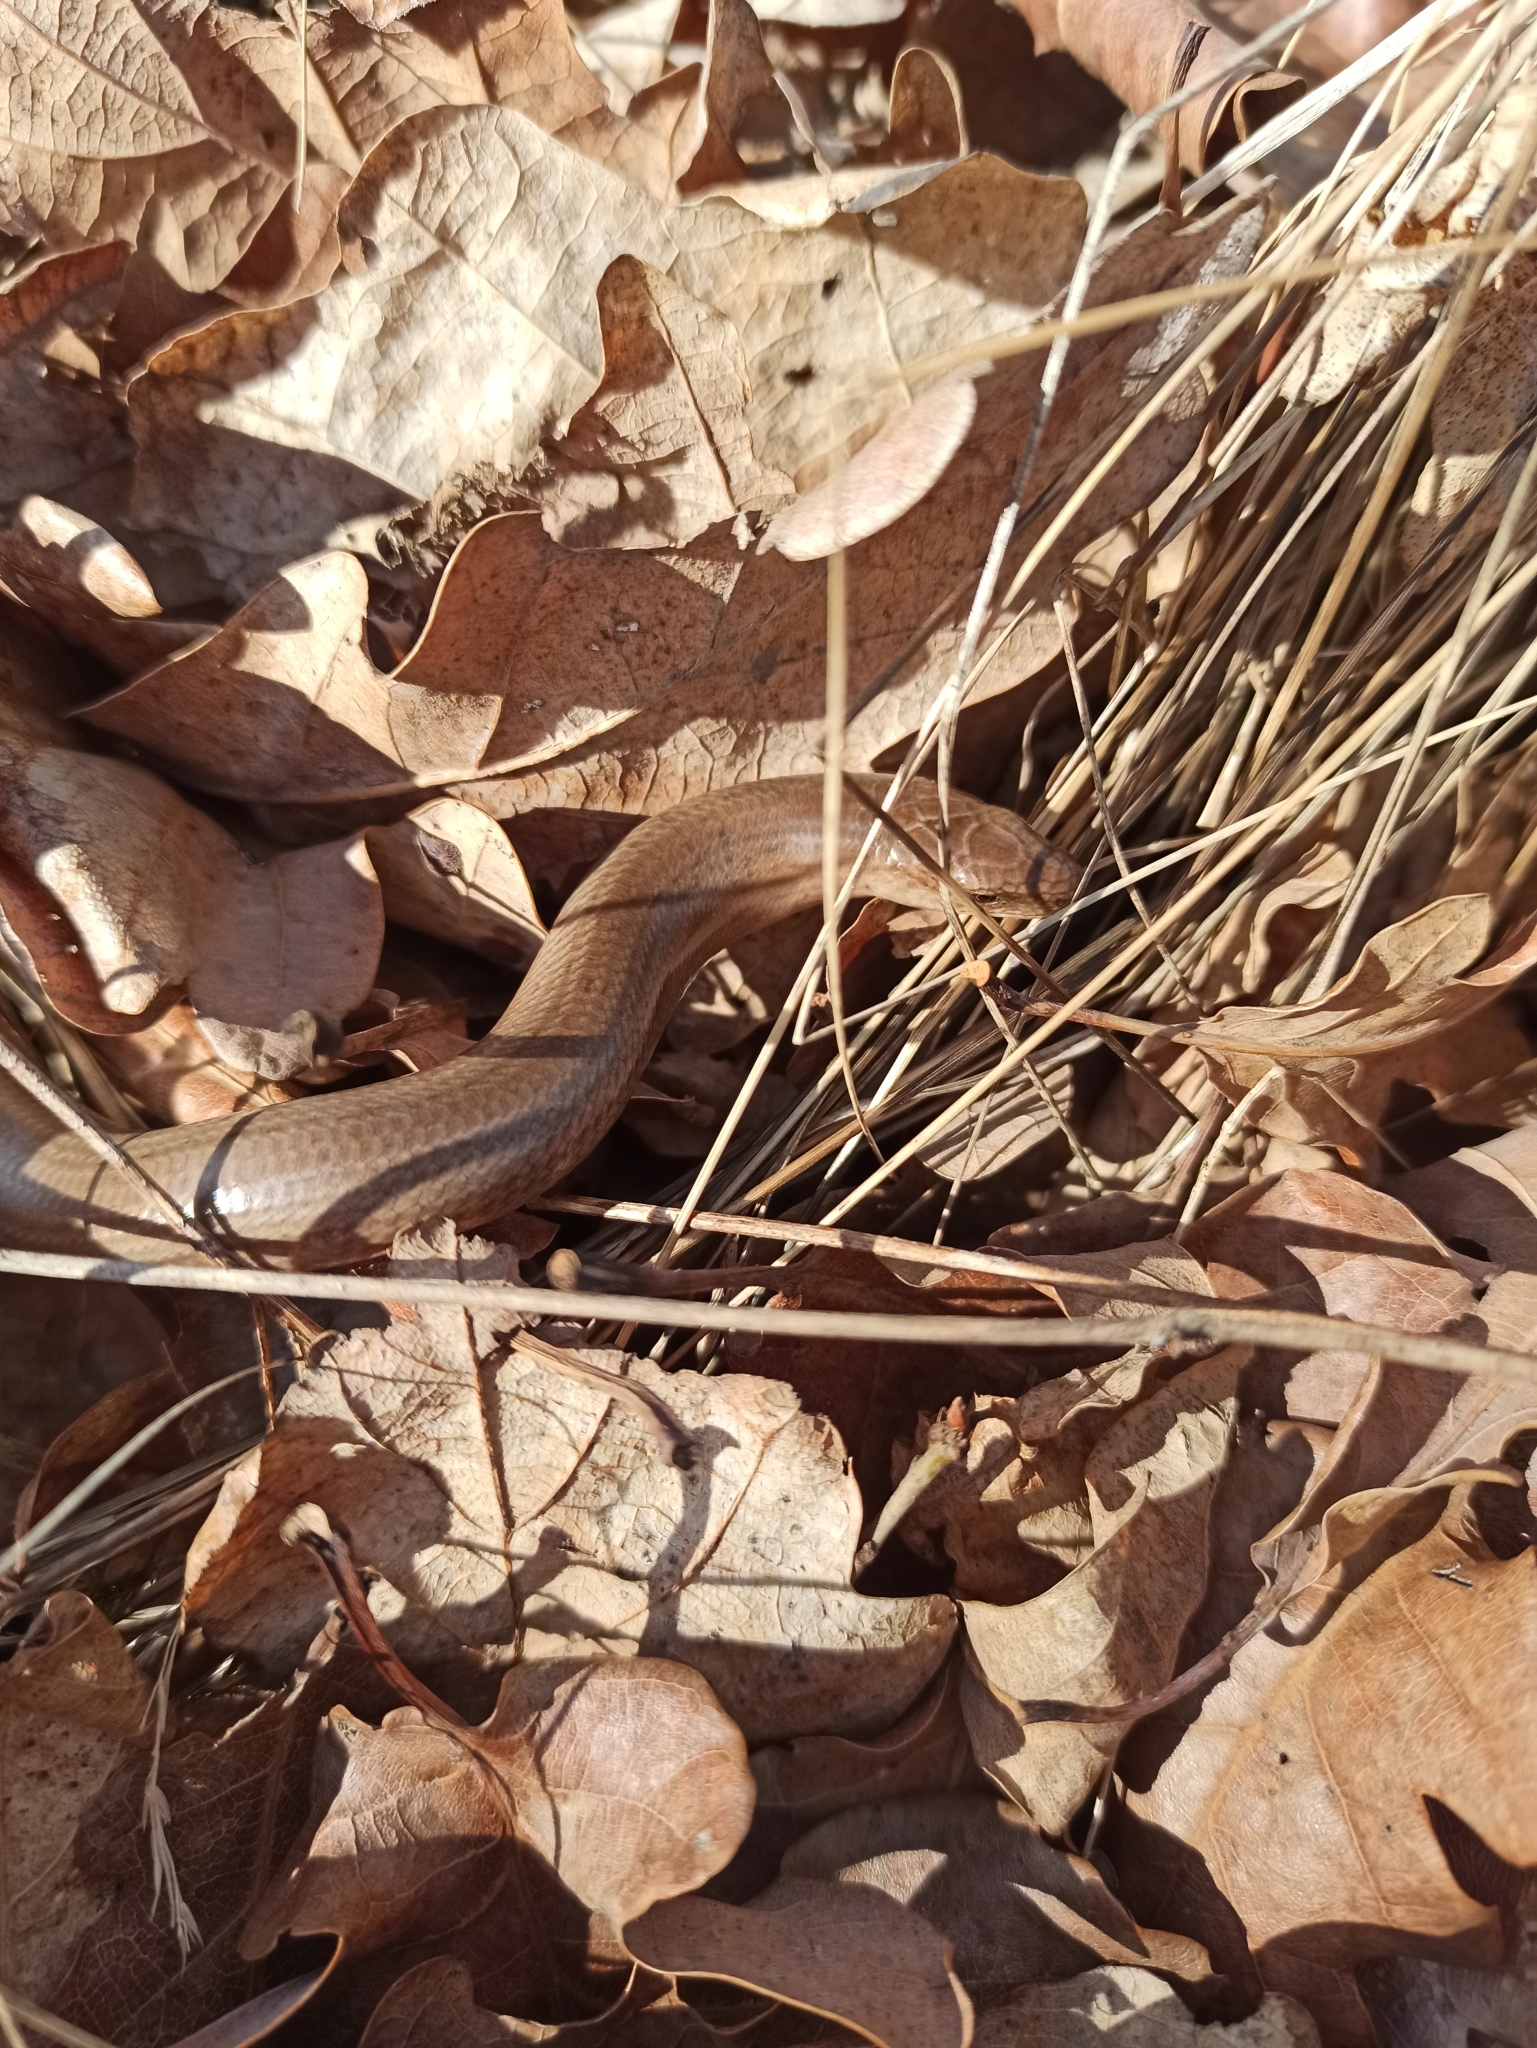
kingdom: Animalia
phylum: Chordata
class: Squamata
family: Anguidae
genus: Anguis
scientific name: Anguis fragilis
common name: Slow worm
